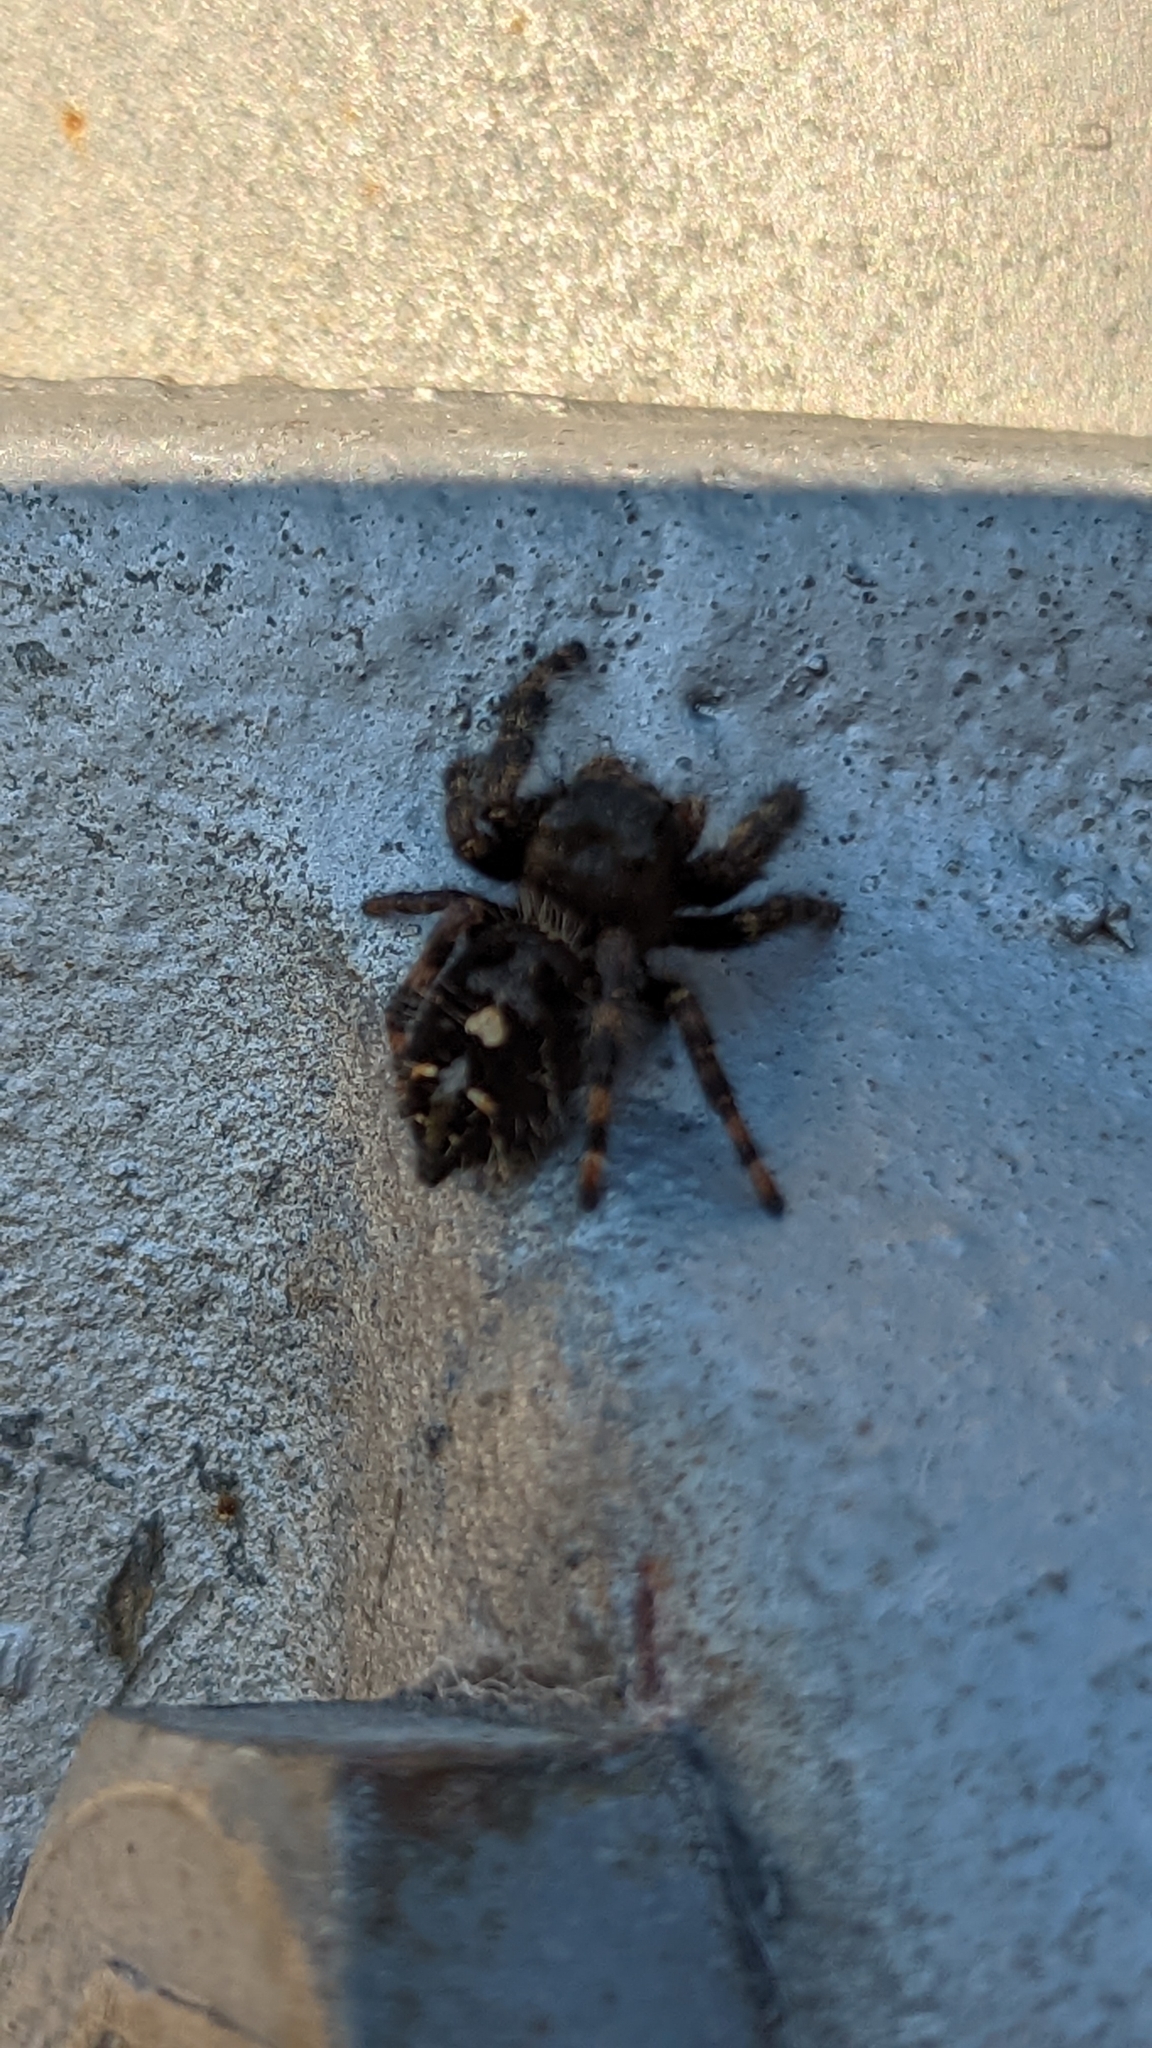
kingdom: Animalia
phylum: Arthropoda
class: Arachnida
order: Araneae
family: Salticidae
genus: Phidippus
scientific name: Phidippus audax
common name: Bold jumper
